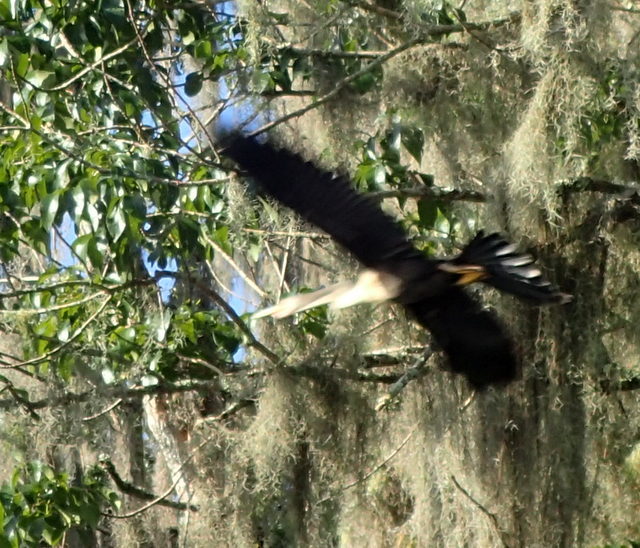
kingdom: Animalia
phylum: Chordata
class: Aves
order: Suliformes
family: Anhingidae
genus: Anhinga
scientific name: Anhinga anhinga
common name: Anhinga
